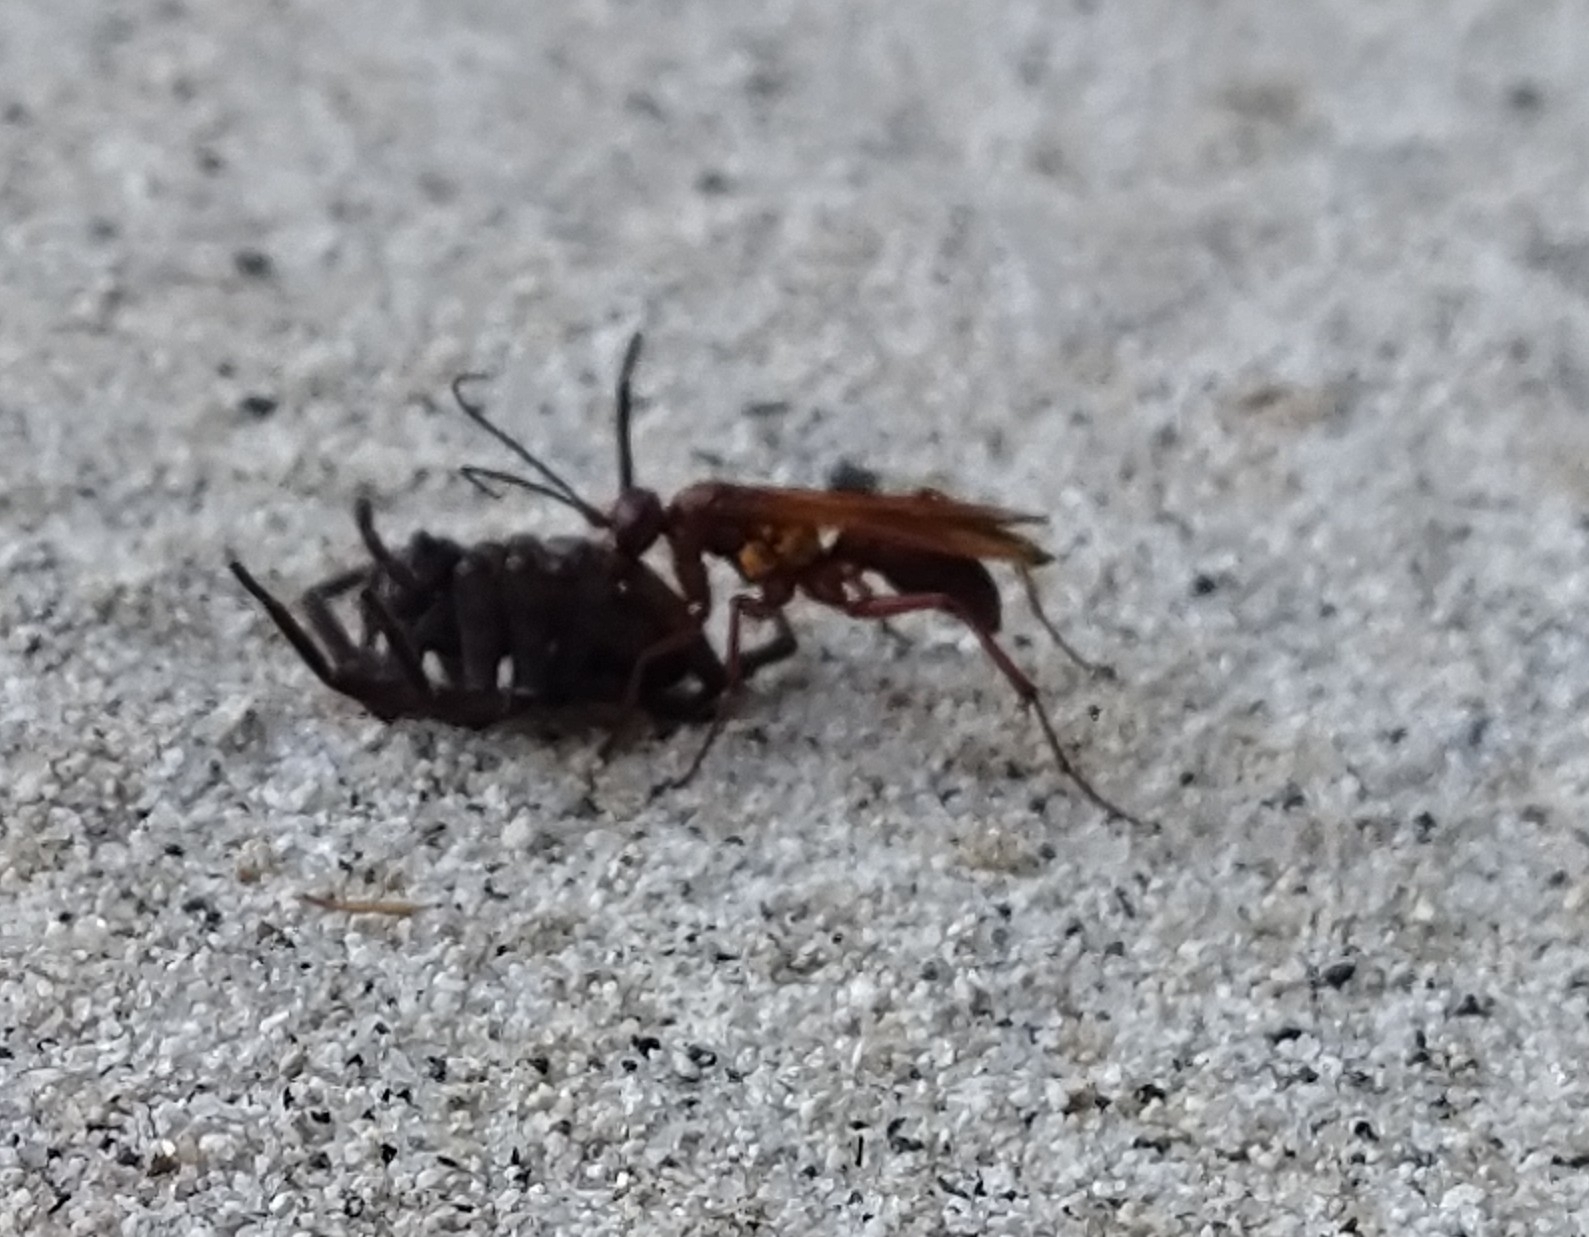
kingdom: Animalia
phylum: Arthropoda
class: Insecta
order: Hymenoptera
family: Pompilidae
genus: Sphictostethus
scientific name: Sphictostethus nitidus
